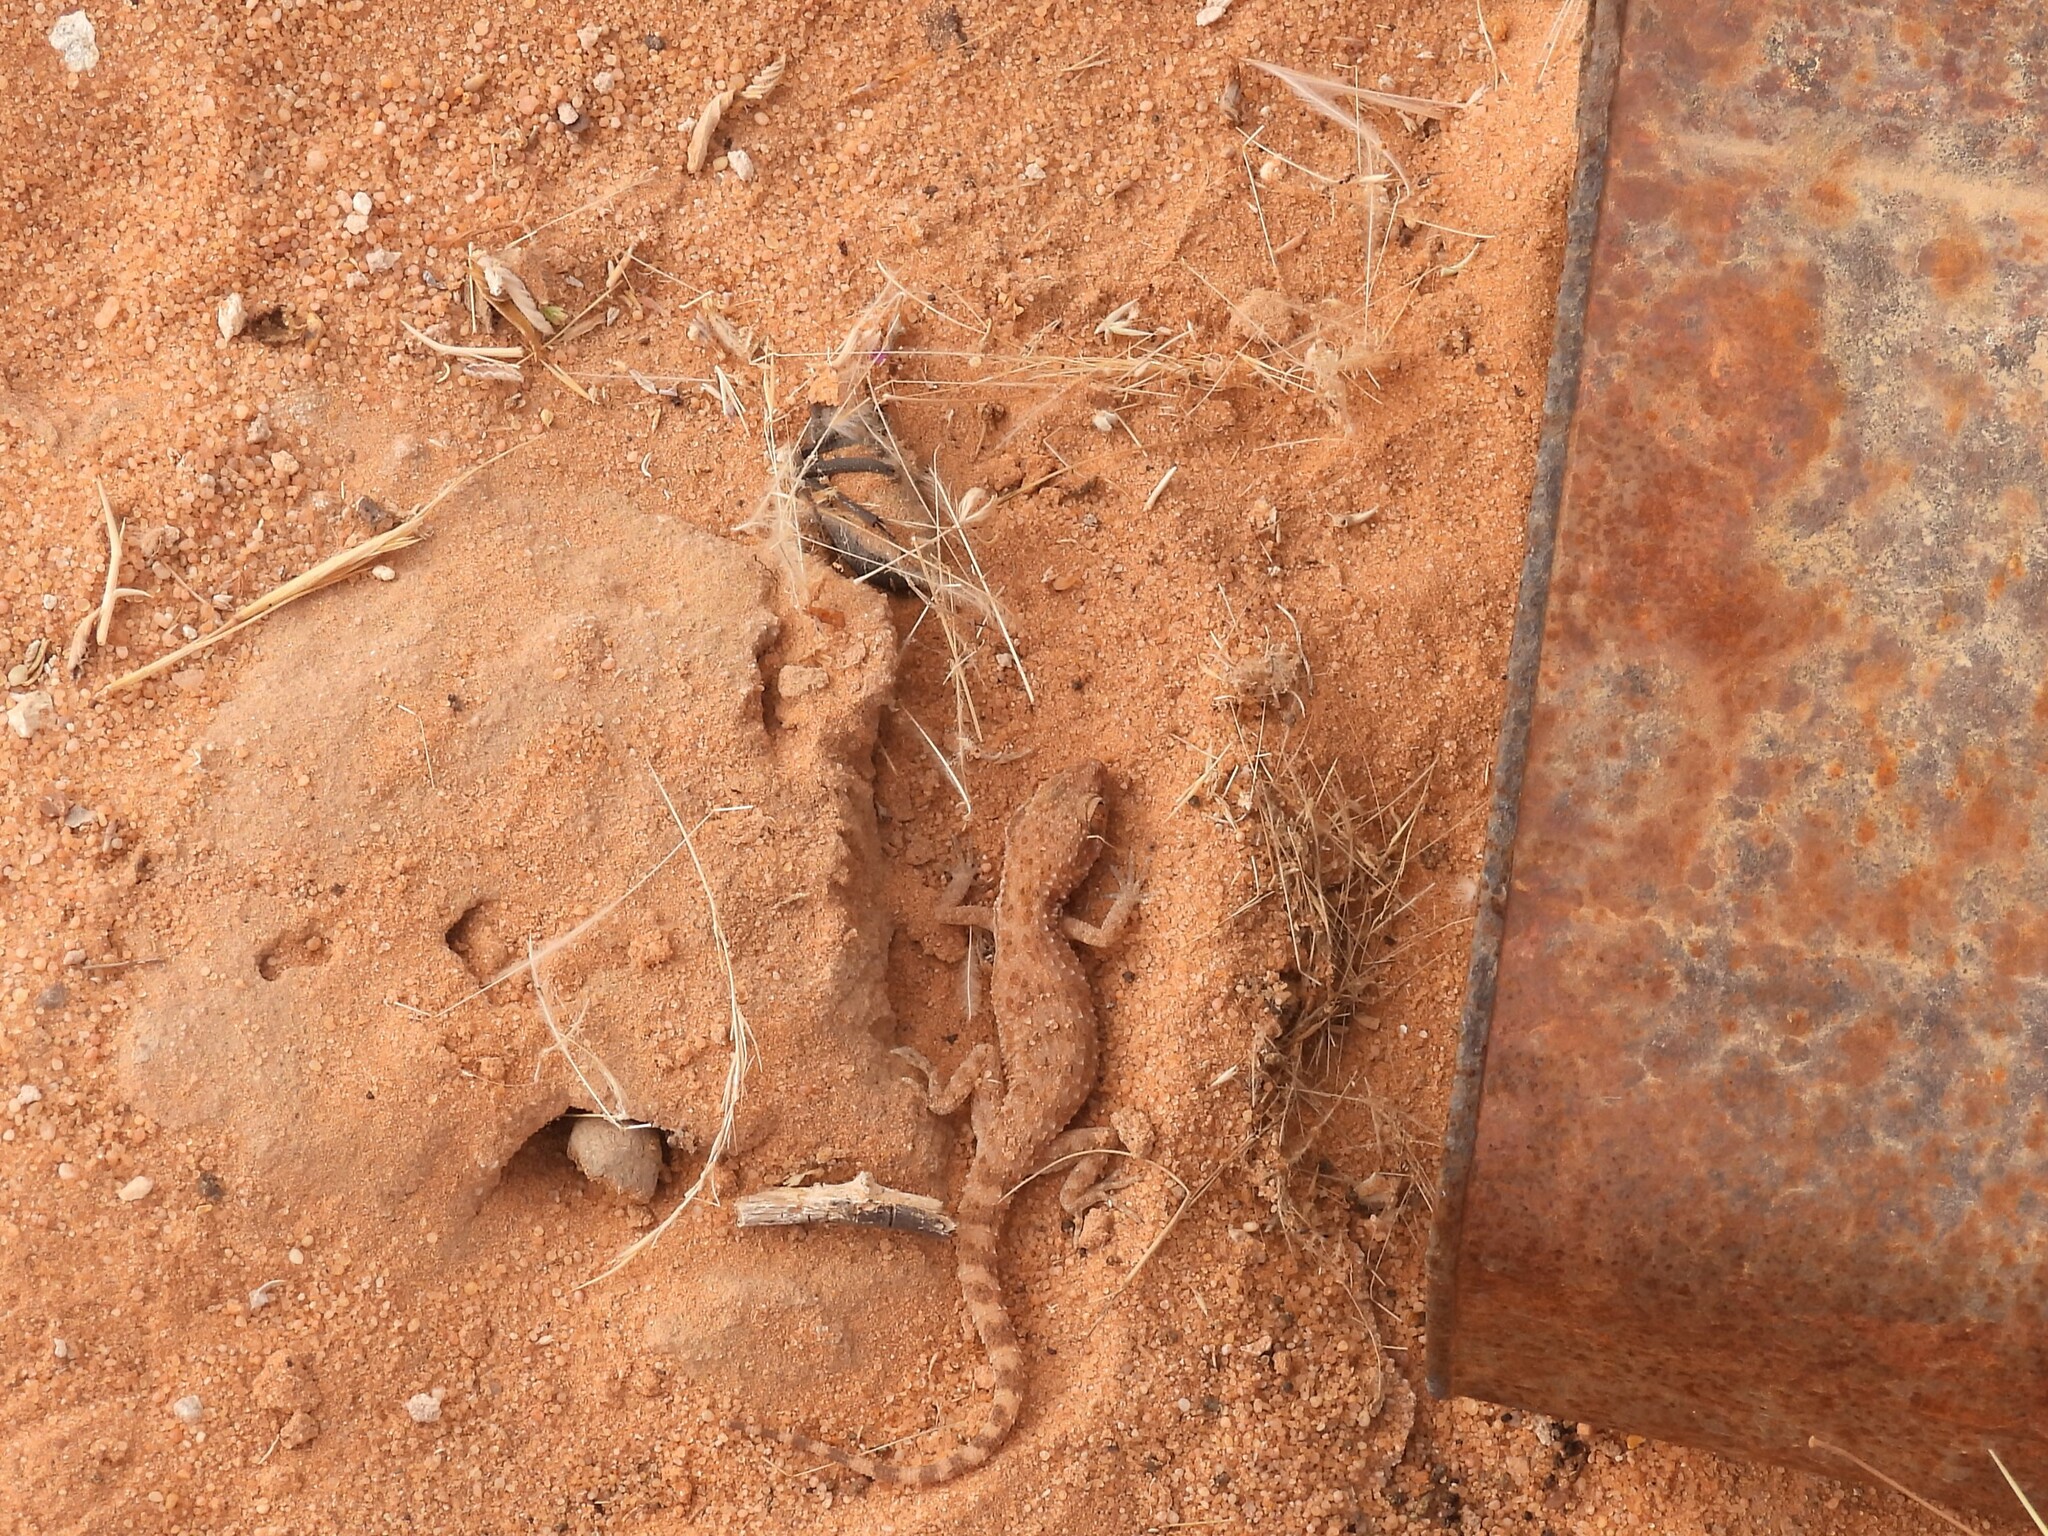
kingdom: Animalia
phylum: Chordata
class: Squamata
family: Gekkonidae
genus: Bunopus
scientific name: Bunopus tuberculatus
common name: Southern tuberculated gecko
